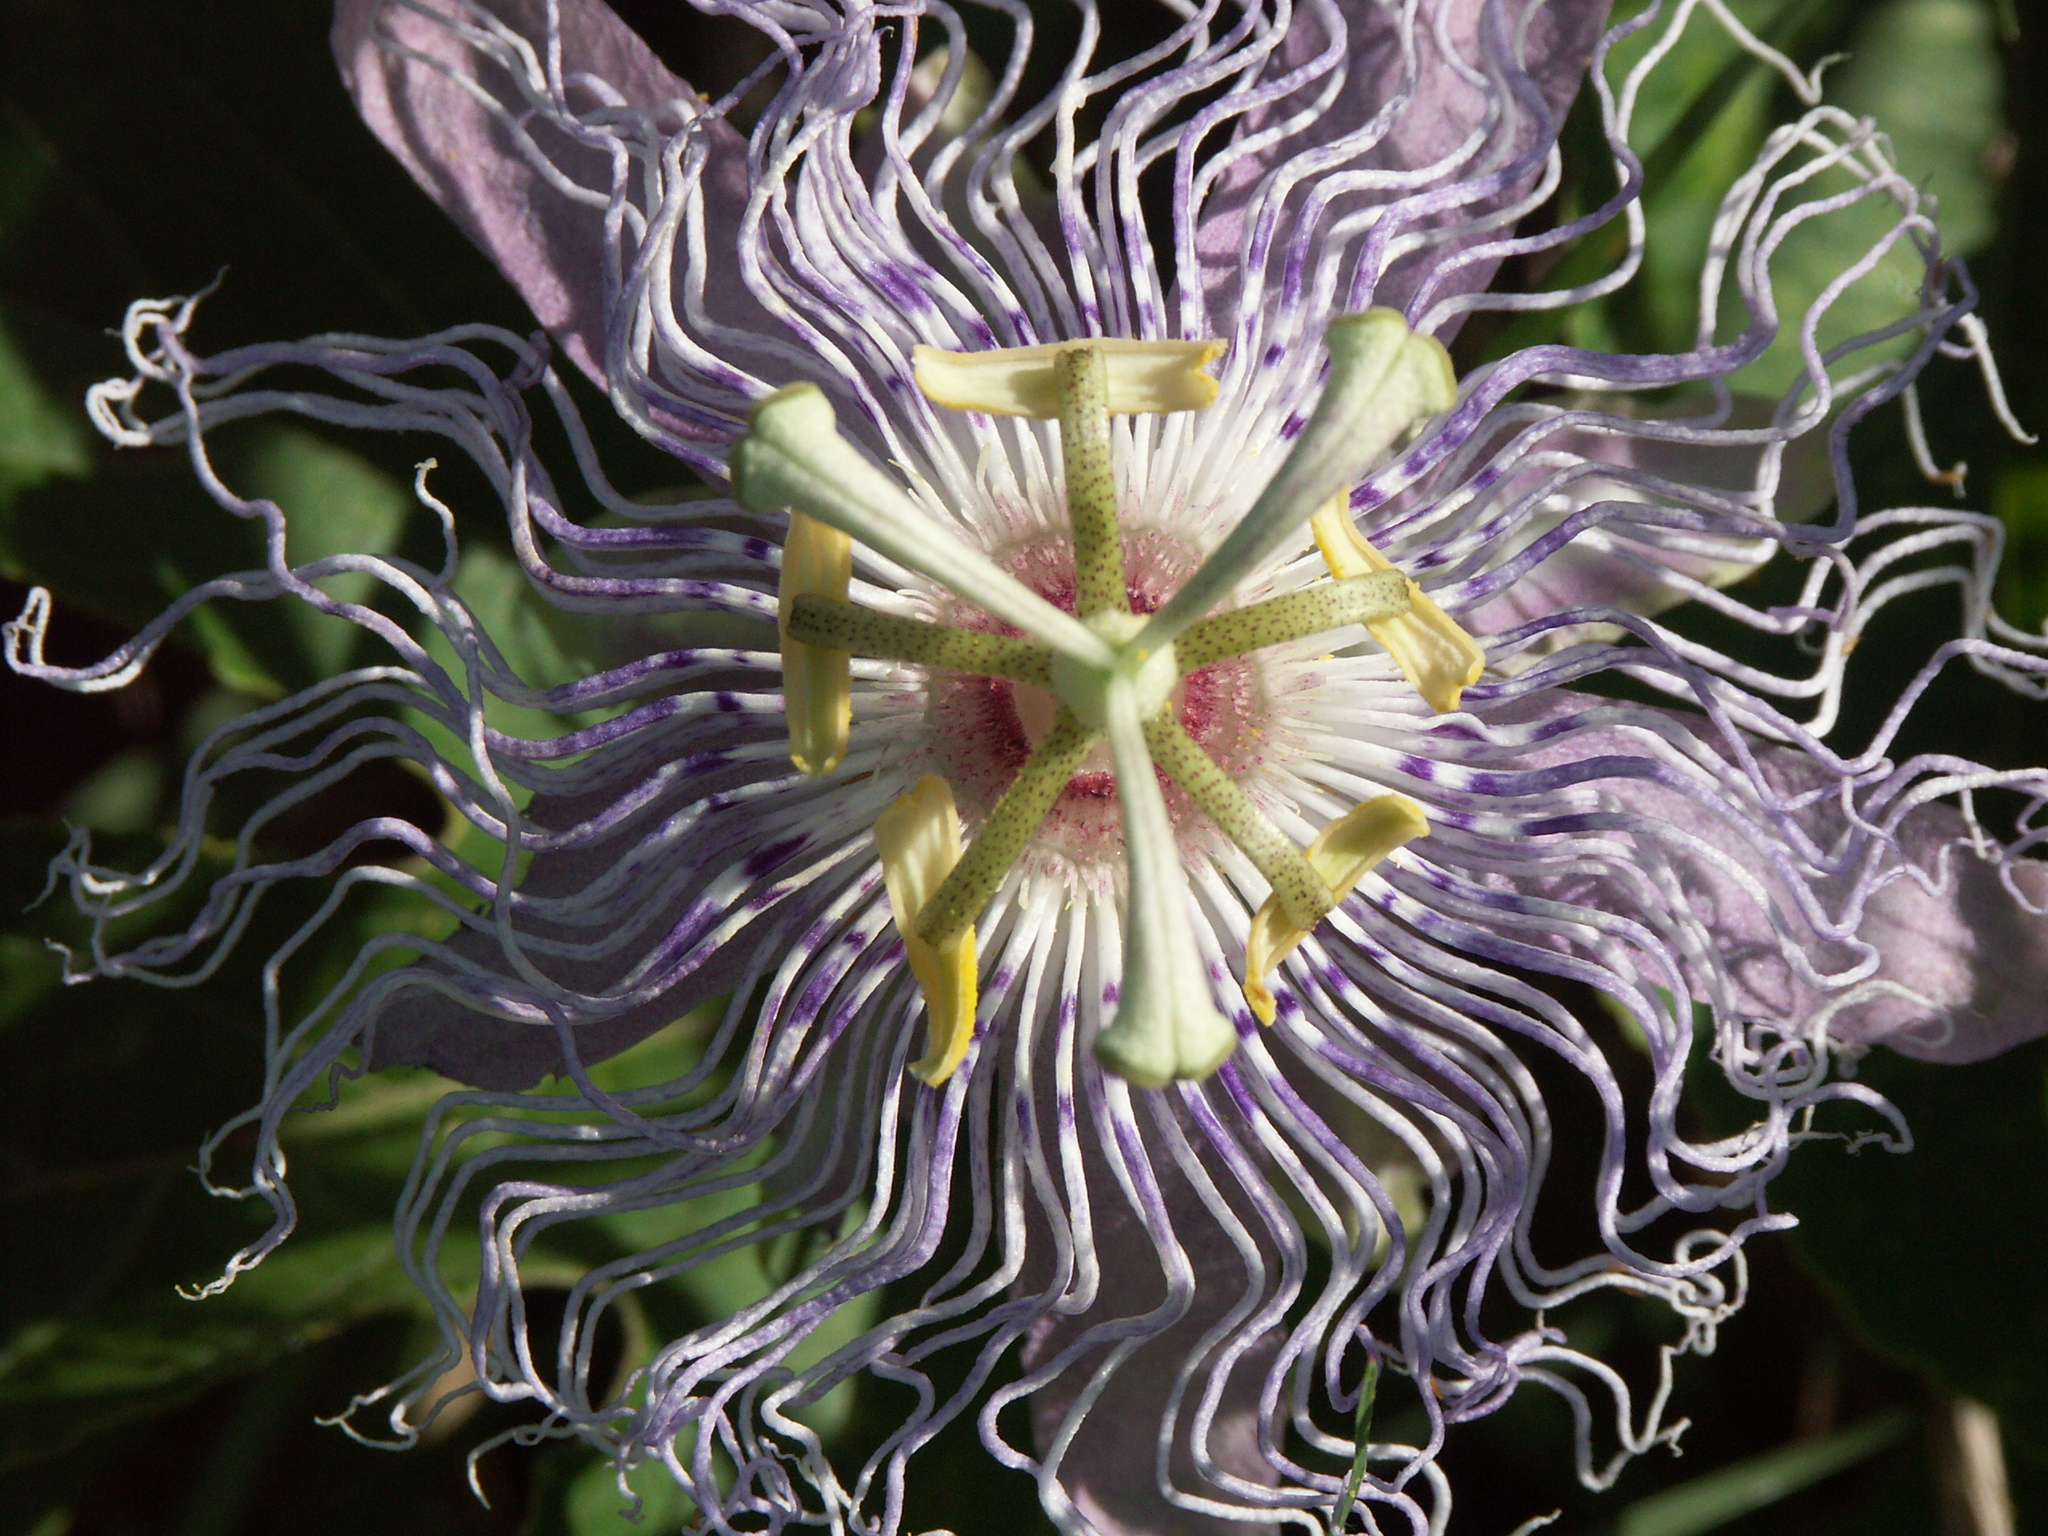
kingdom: Plantae
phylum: Tracheophyta
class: Magnoliopsida
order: Malpighiales
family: Passifloraceae
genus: Passiflora
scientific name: Passiflora incarnata
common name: Apricot-vine
